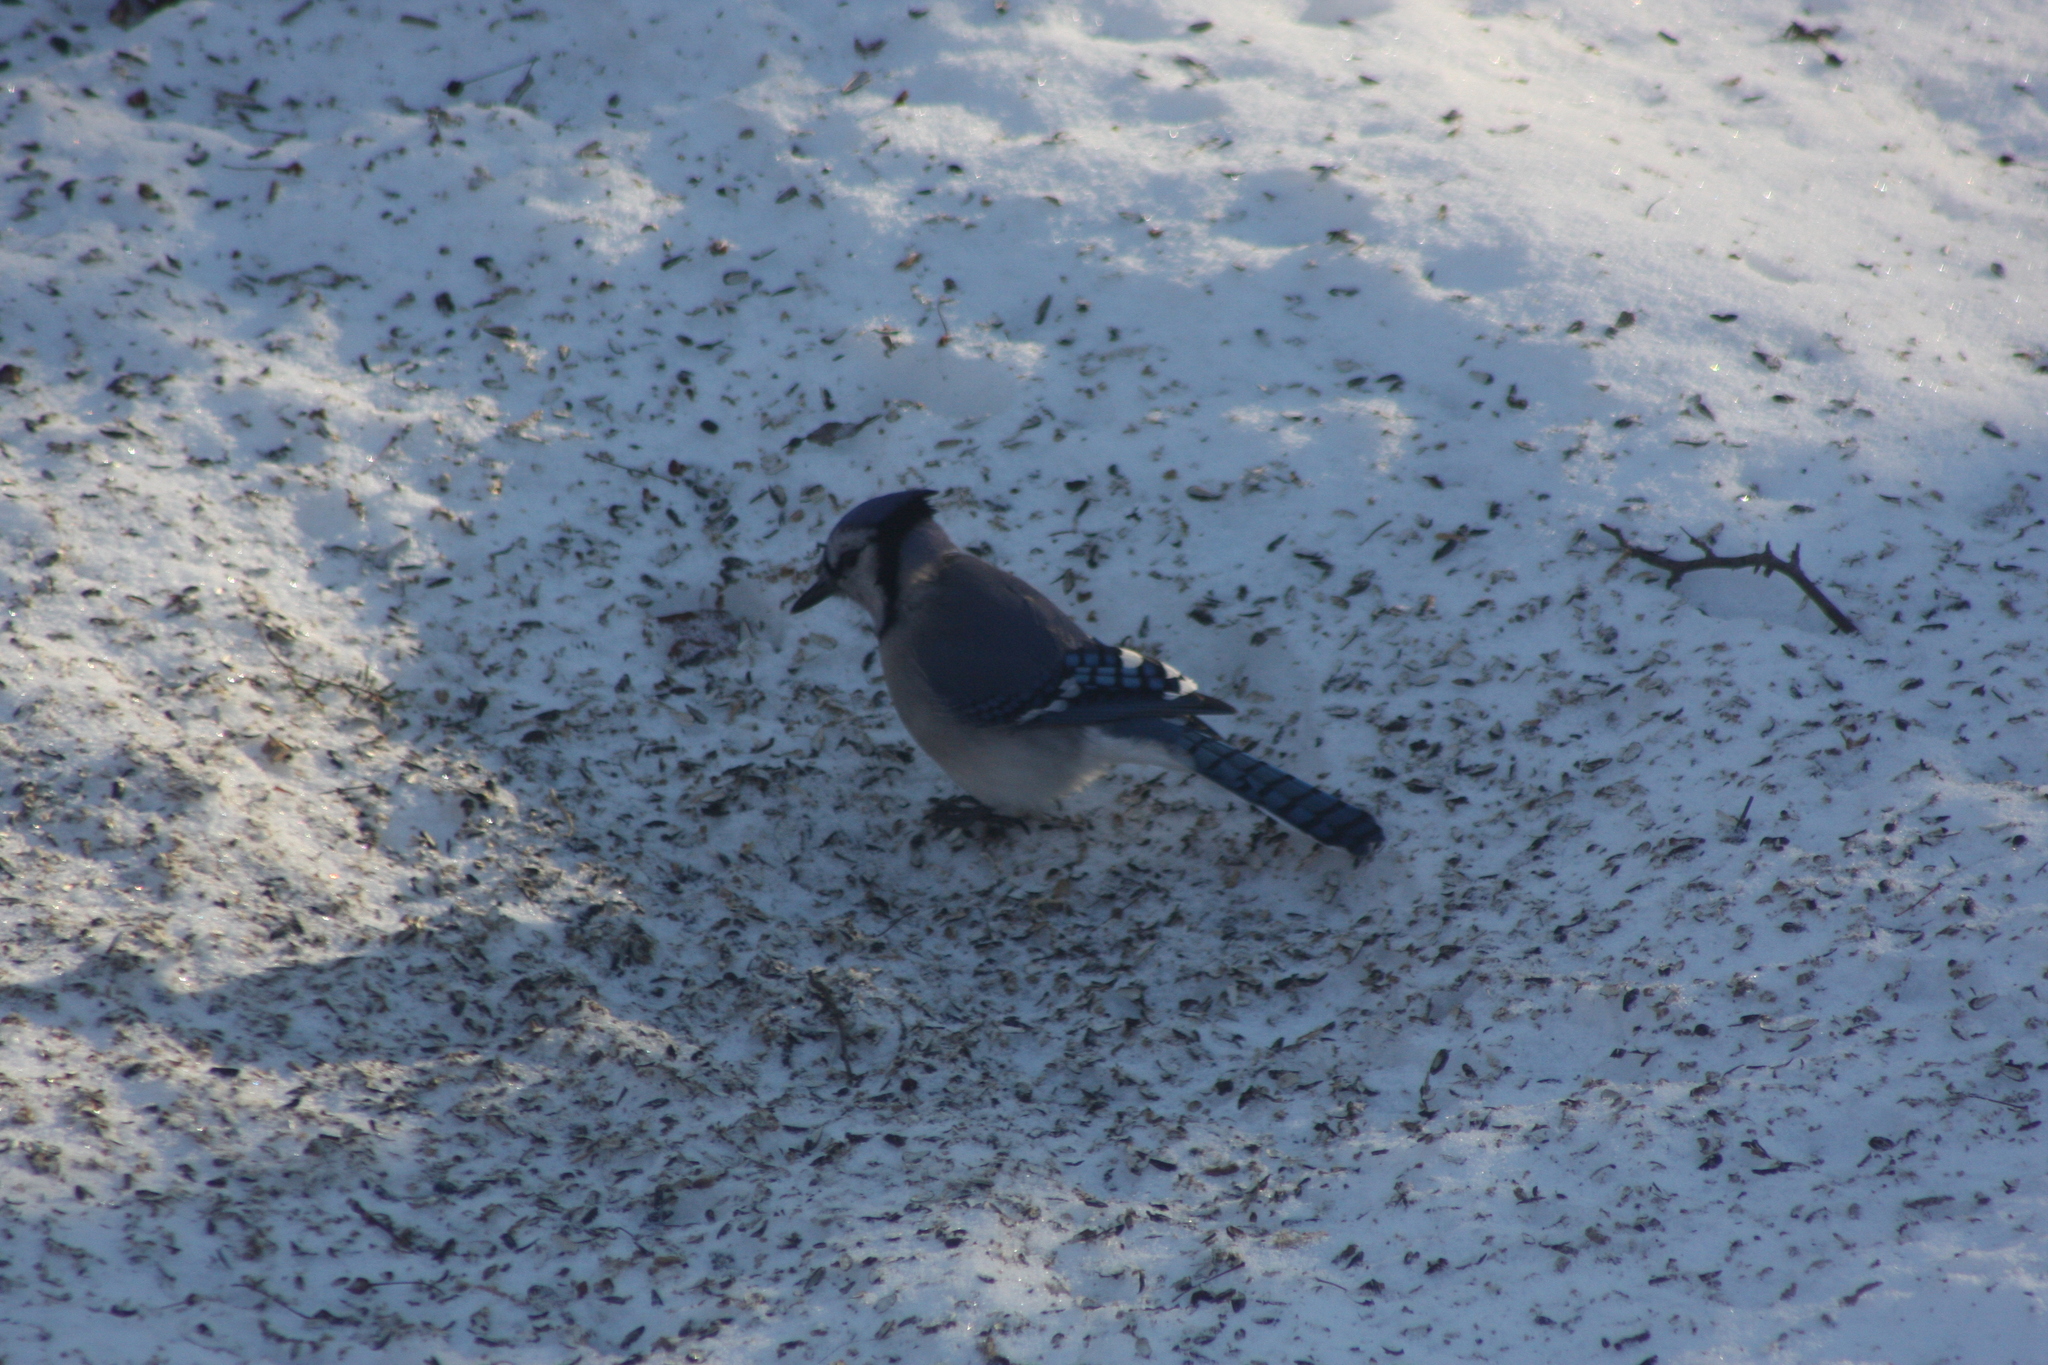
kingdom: Animalia
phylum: Chordata
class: Aves
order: Passeriformes
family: Corvidae
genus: Cyanocitta
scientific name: Cyanocitta cristata
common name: Blue jay
